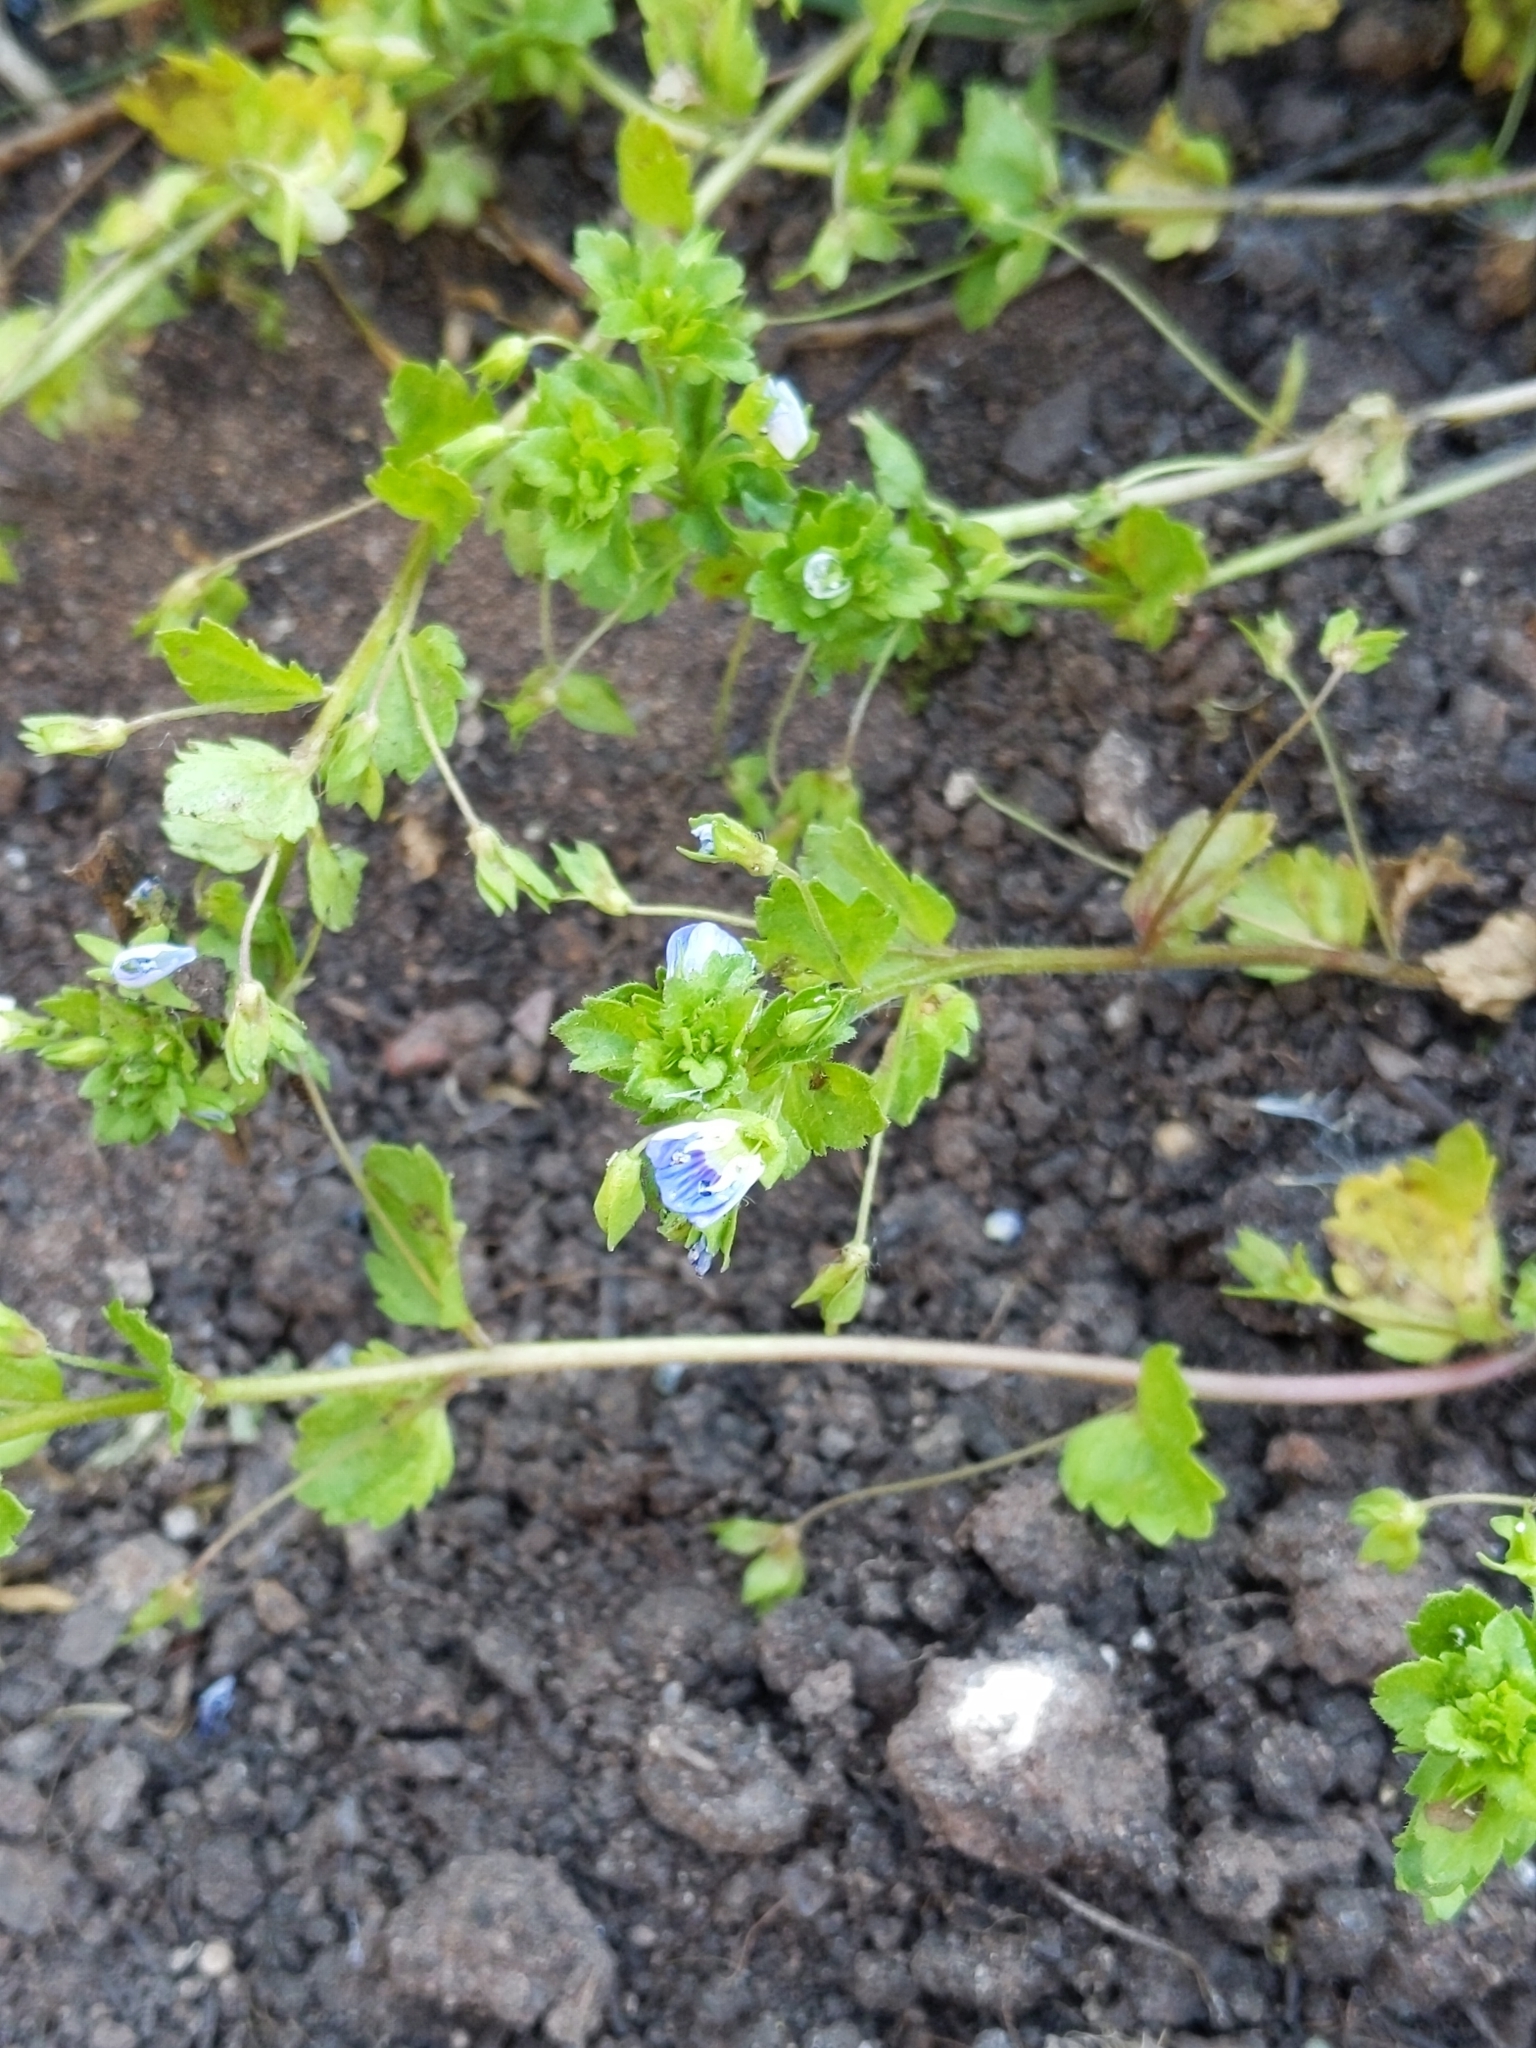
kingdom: Plantae
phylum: Tracheophyta
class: Magnoliopsida
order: Lamiales
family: Plantaginaceae
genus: Veronica
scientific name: Veronica persica
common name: Common field-speedwell
